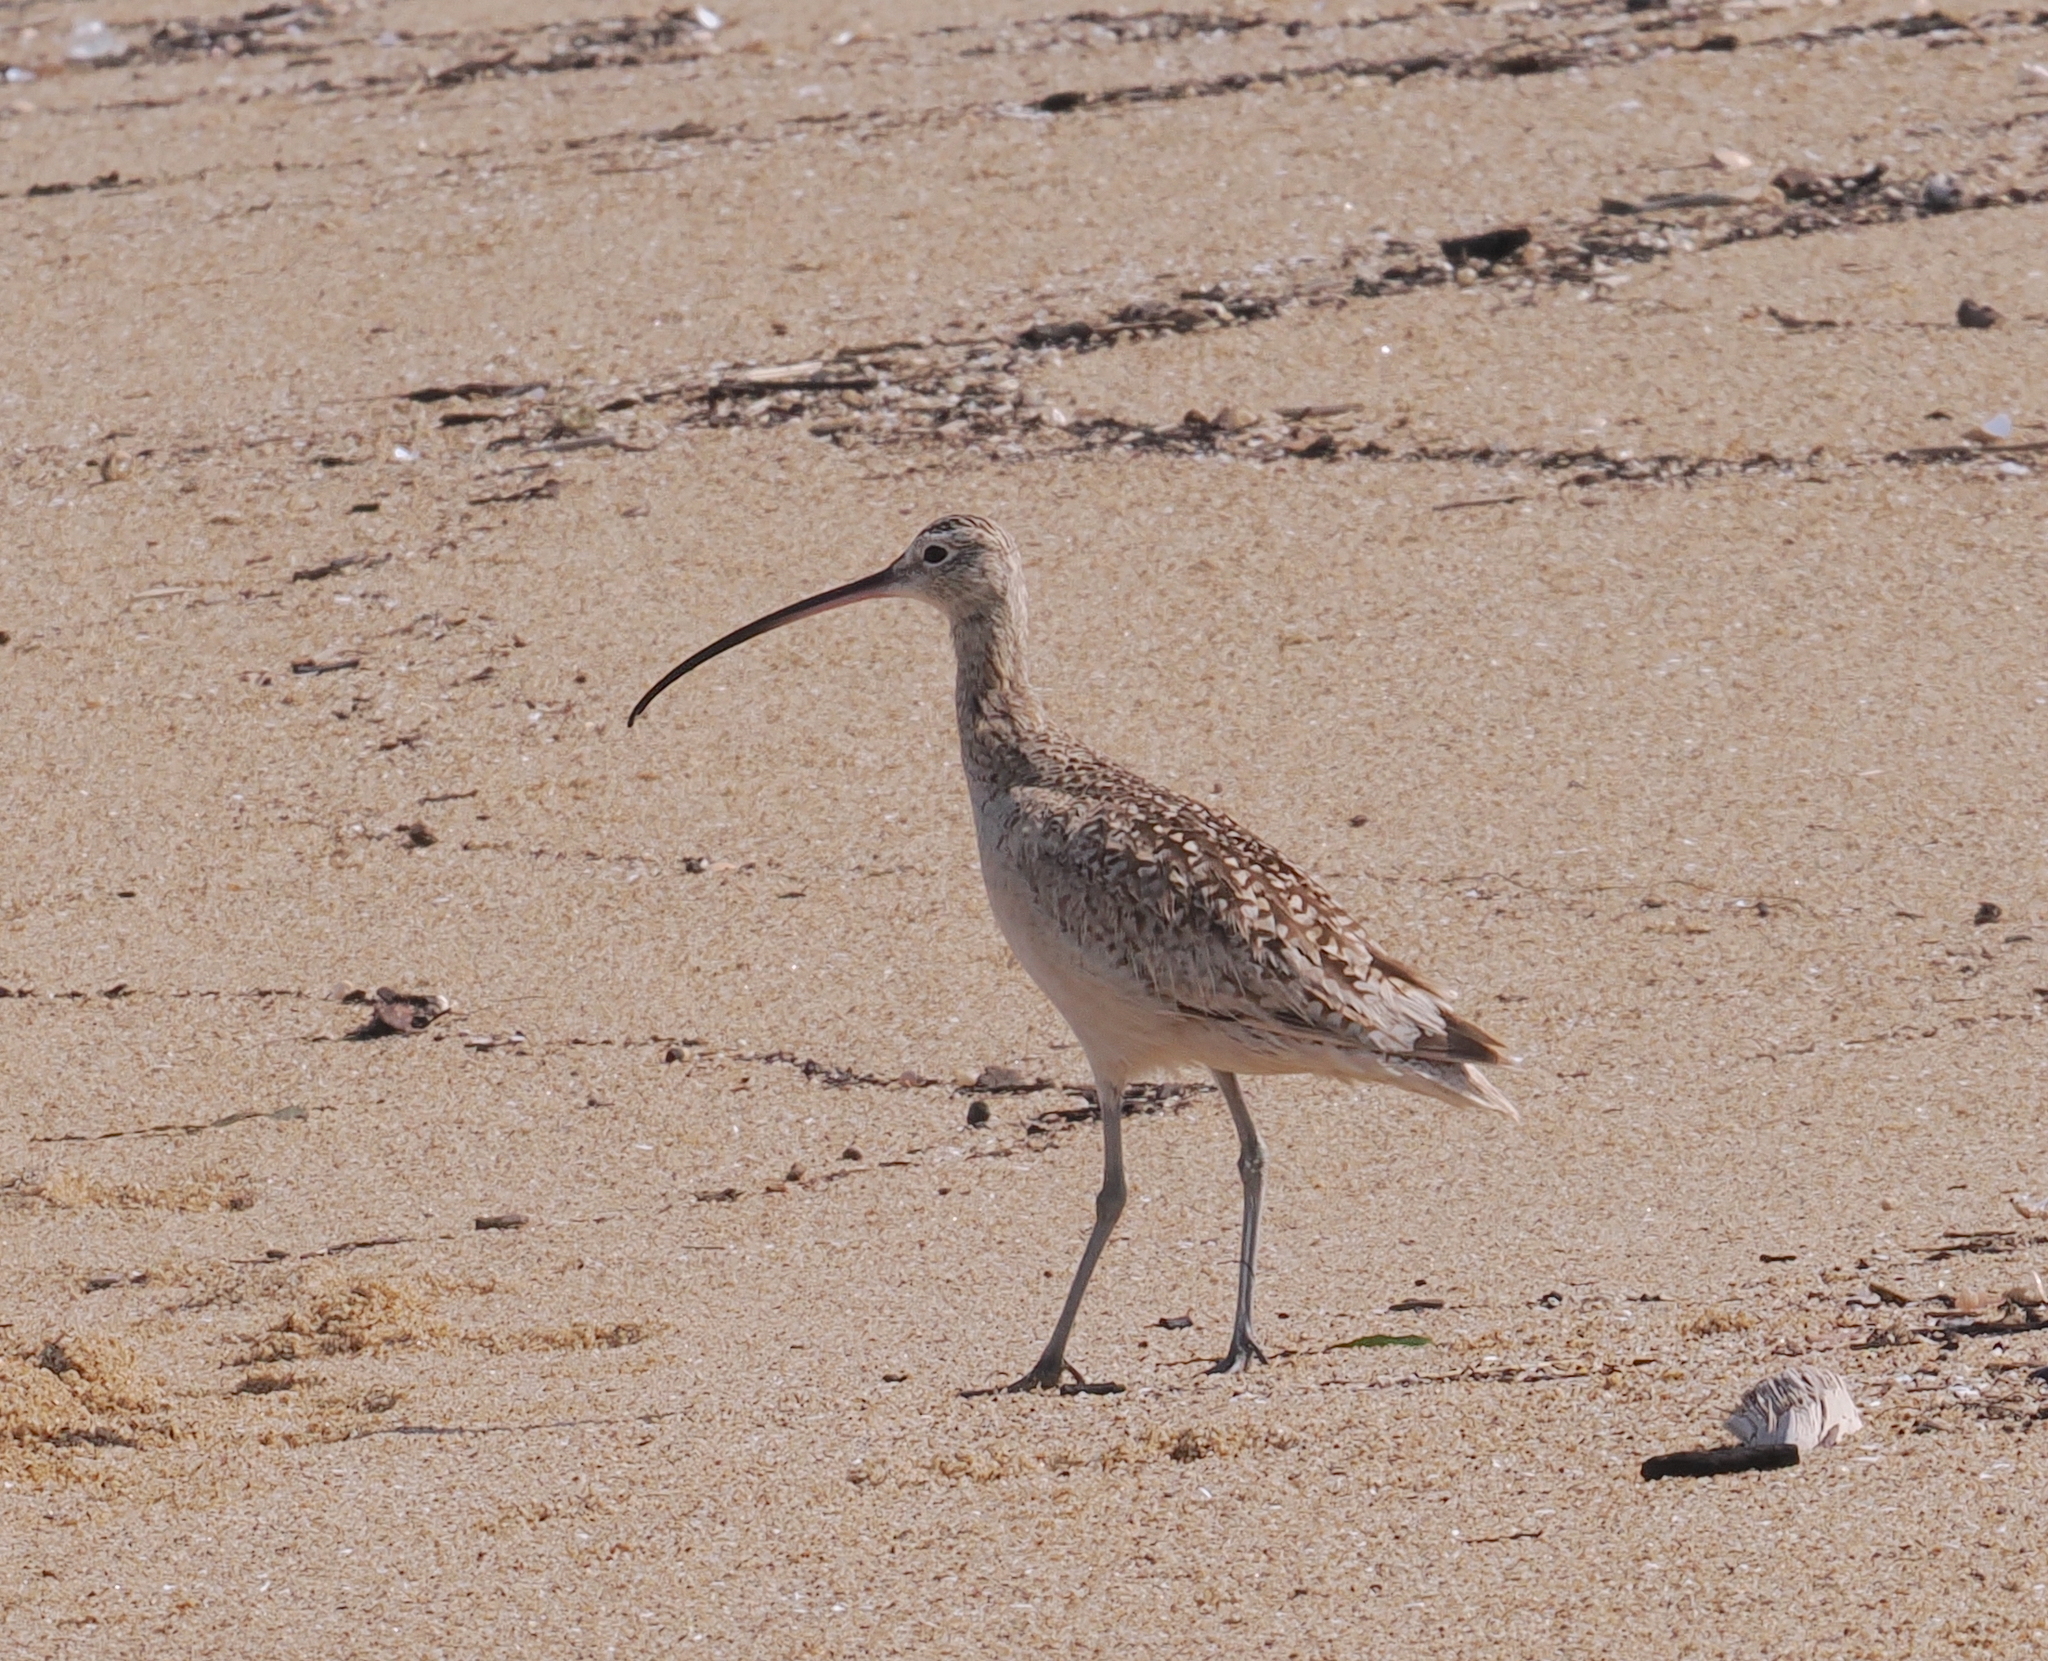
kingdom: Animalia
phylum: Chordata
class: Aves
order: Charadriiformes
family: Scolopacidae
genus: Numenius
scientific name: Numenius americanus
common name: Long-billed curlew
